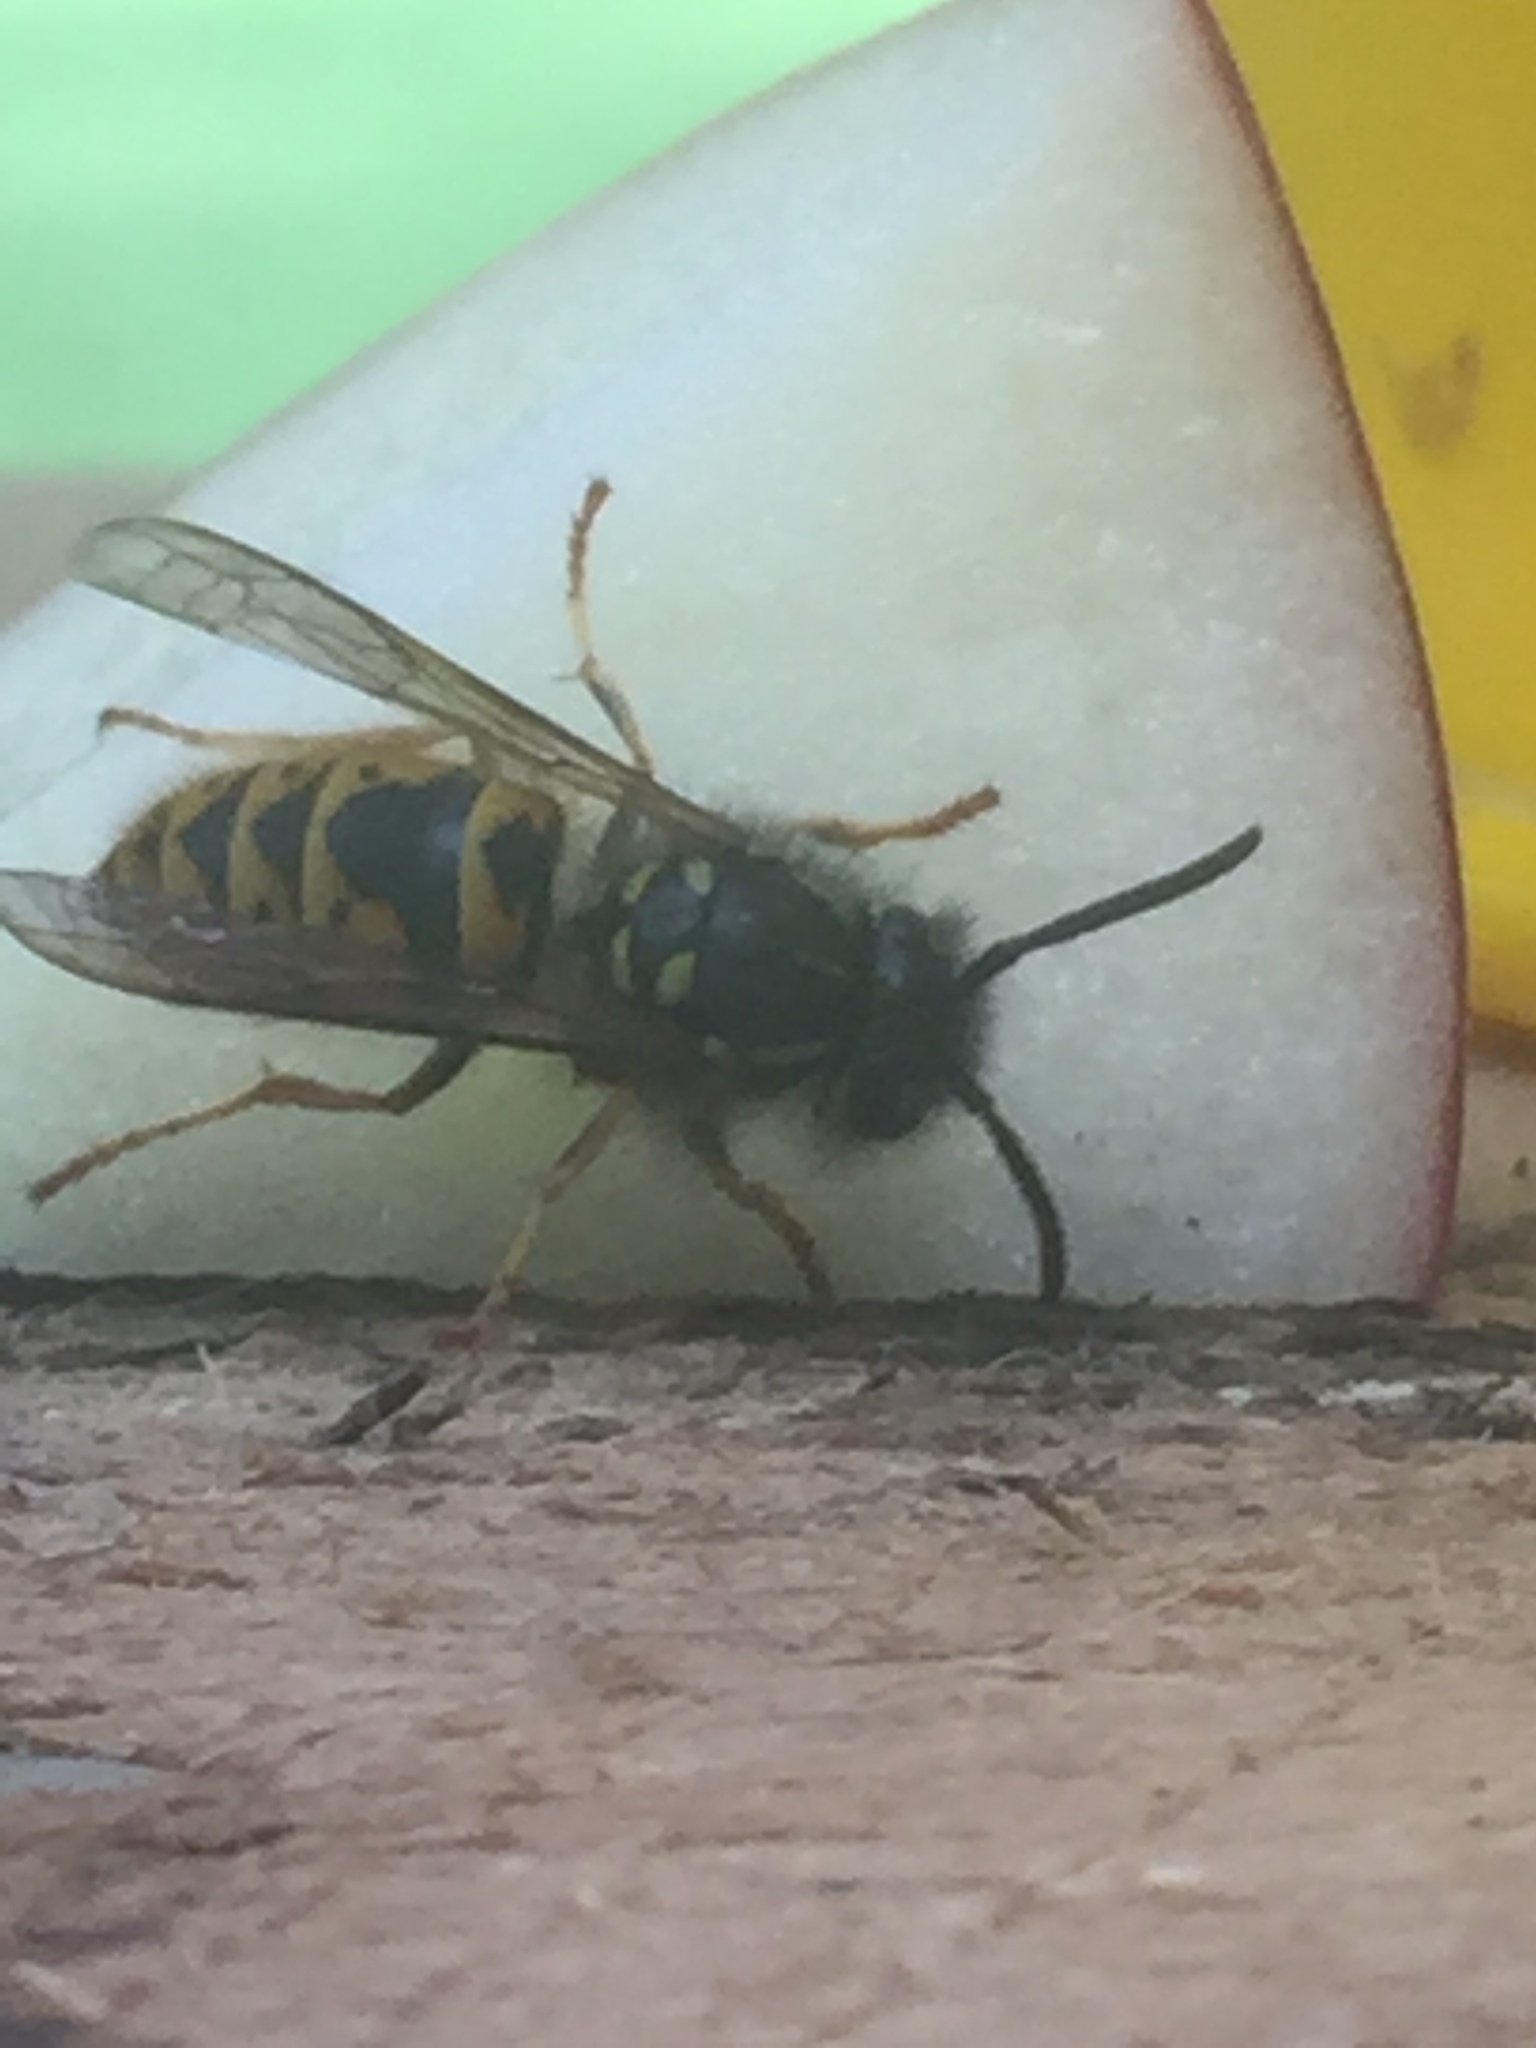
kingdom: Animalia
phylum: Arthropoda
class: Insecta
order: Hymenoptera
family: Vespidae
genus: Vespula
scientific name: Vespula vulgaris
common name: Common wasp
